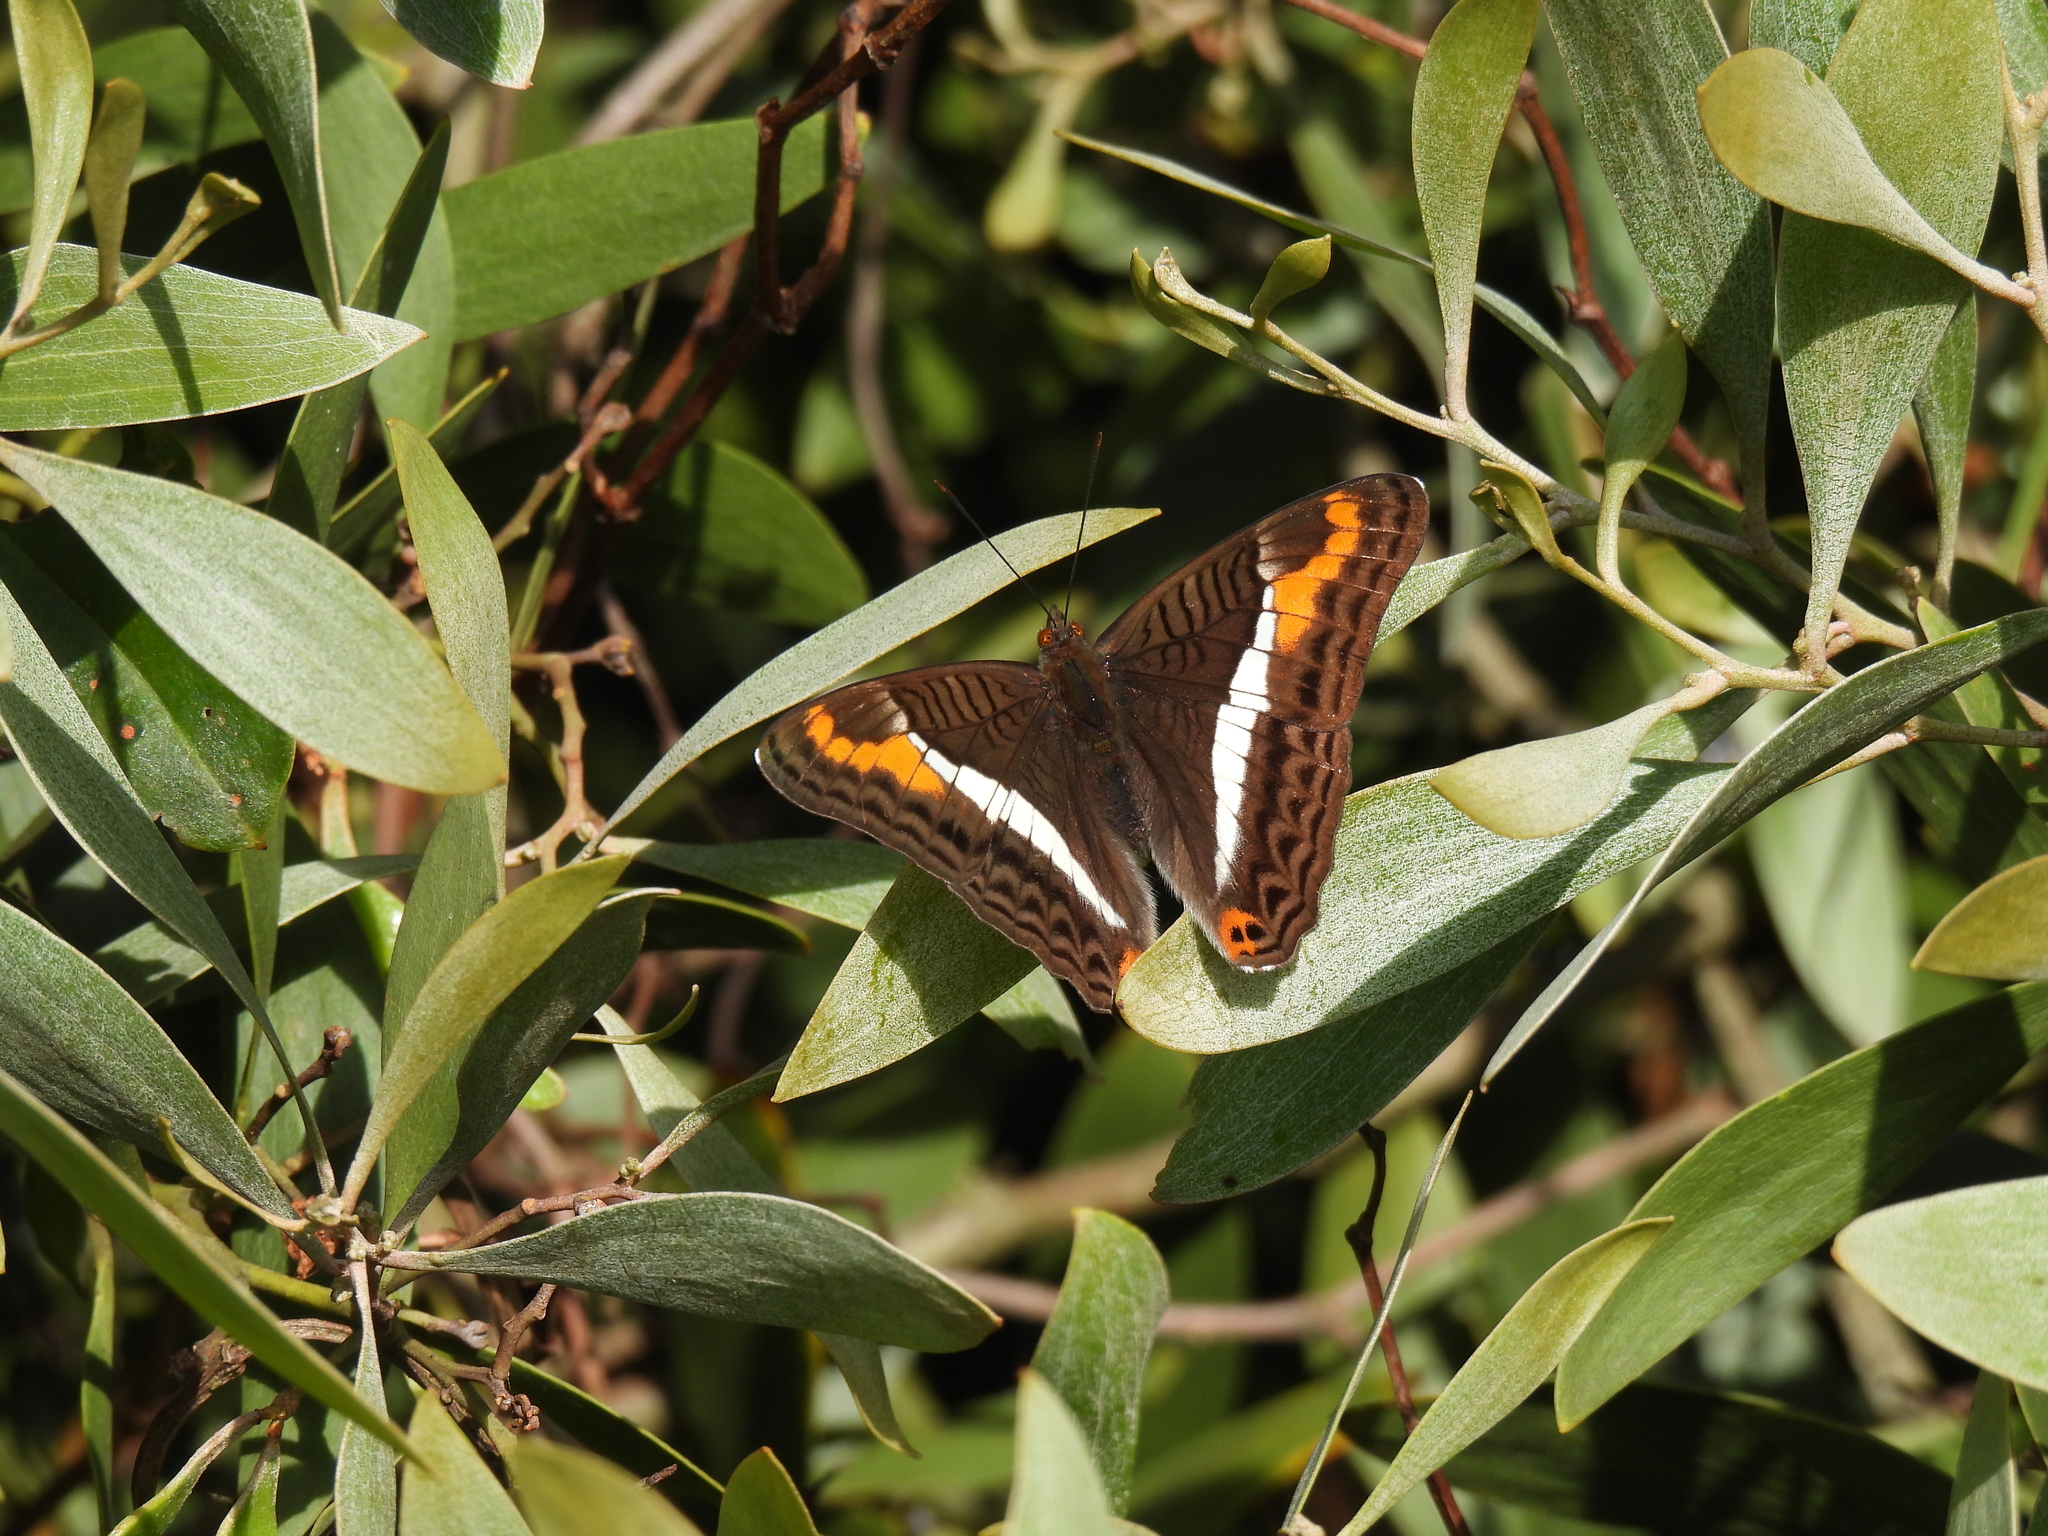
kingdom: Animalia
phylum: Arthropoda
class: Insecta
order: Lepidoptera
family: Nymphalidae
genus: Limenitis
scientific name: Limenitis corcyra
